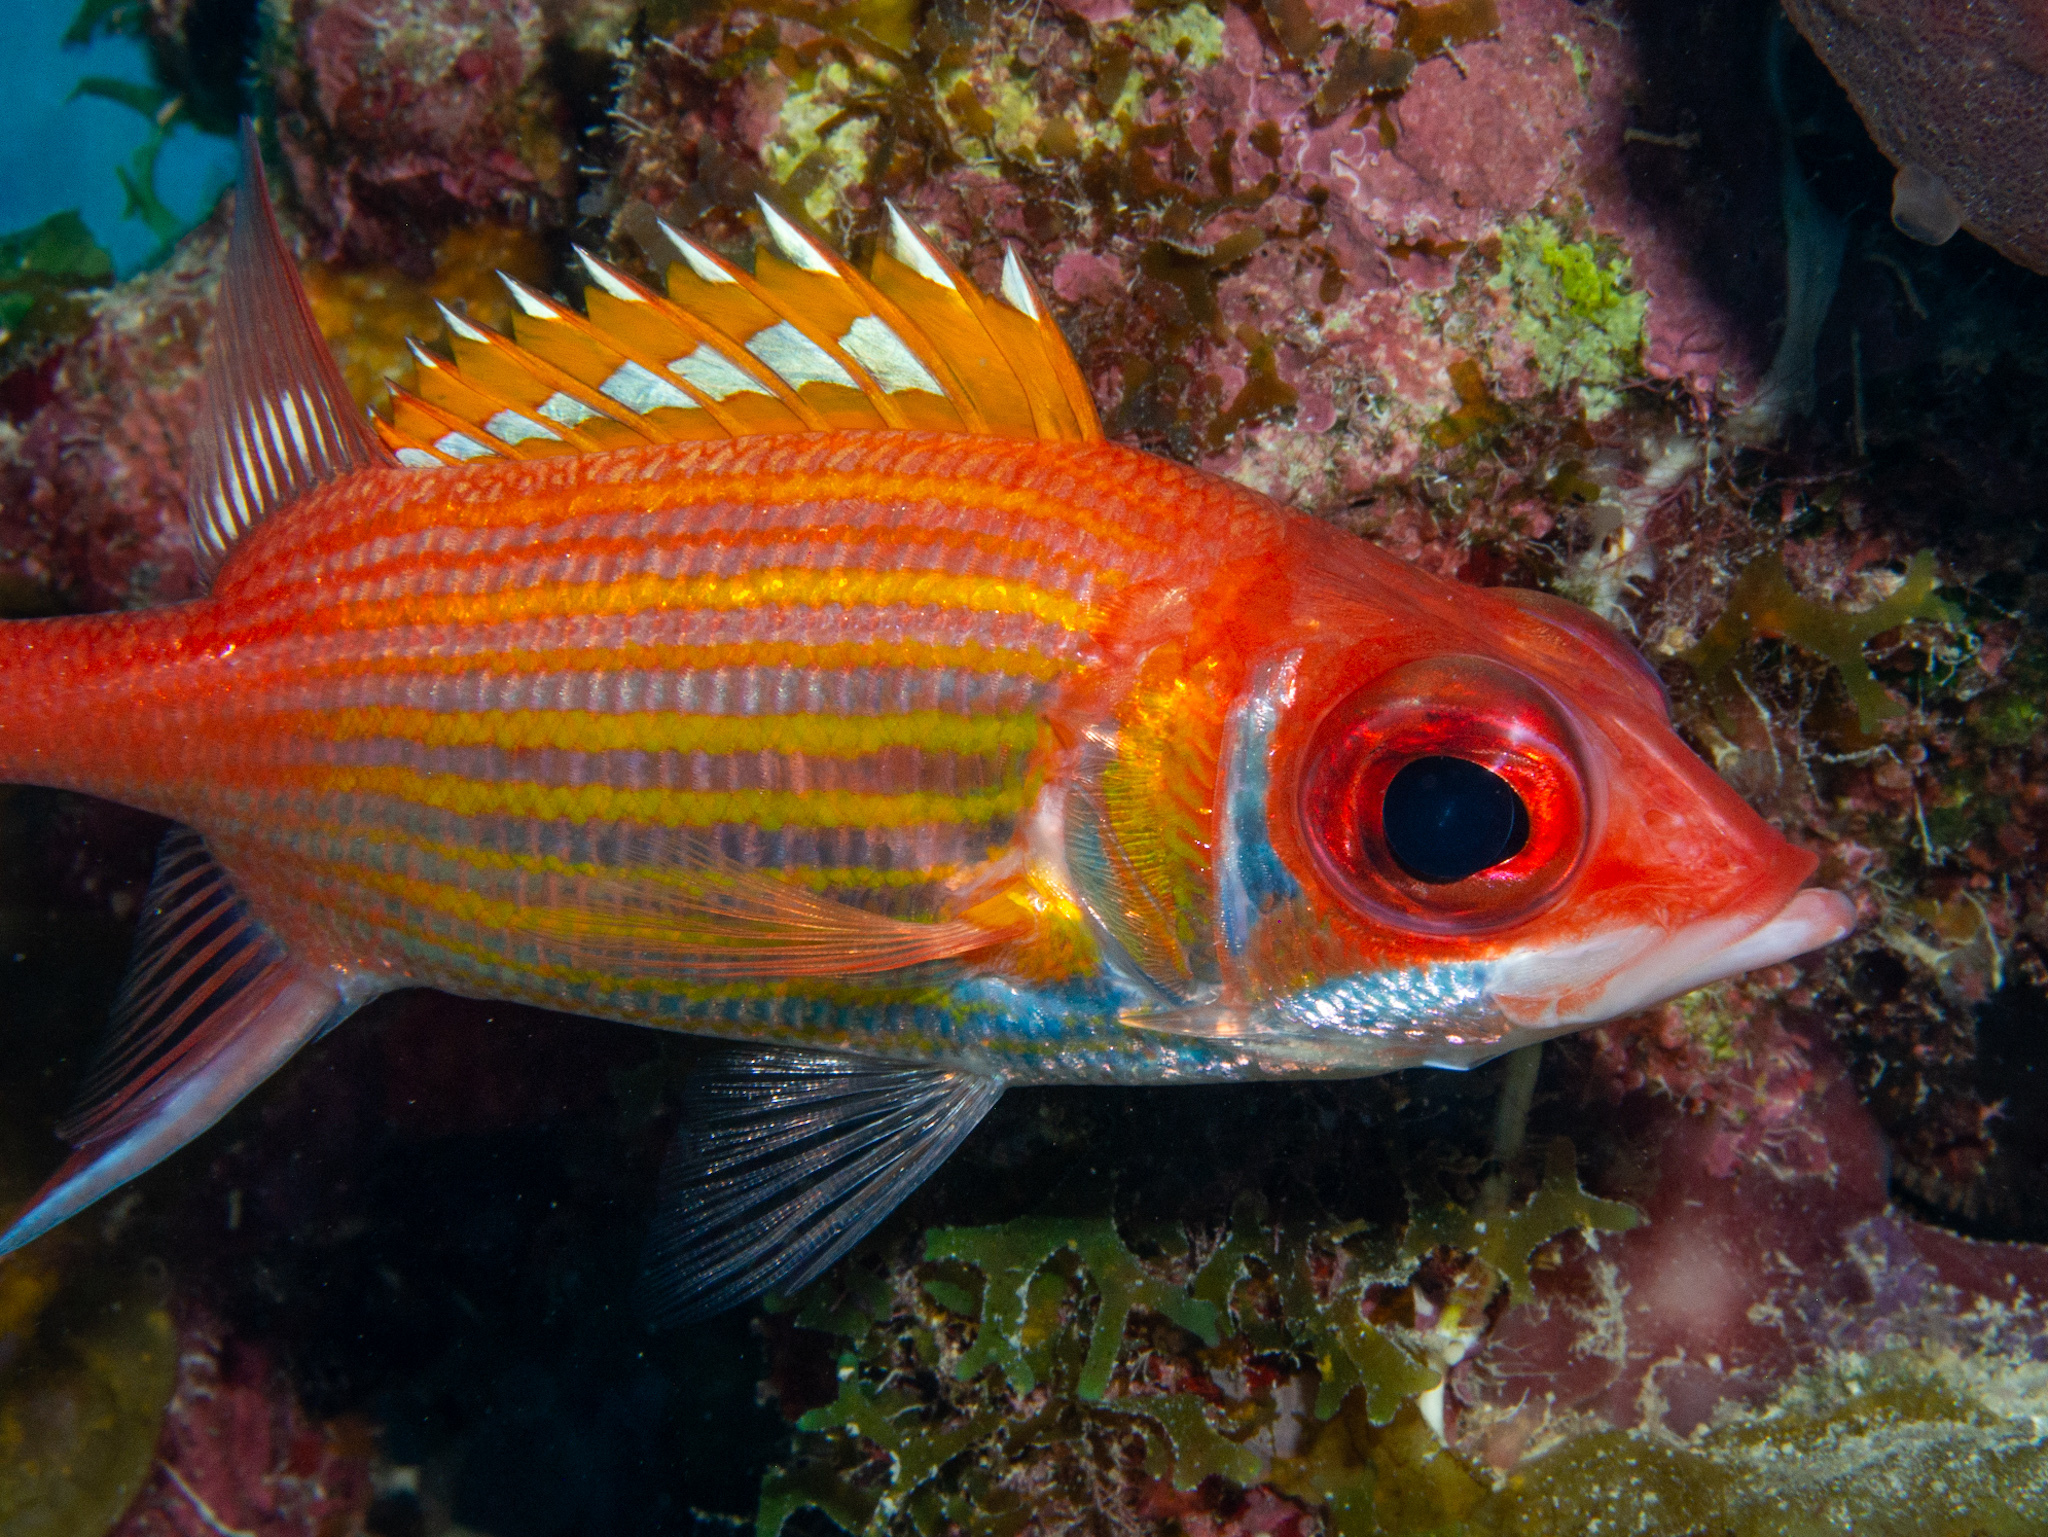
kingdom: Animalia
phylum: Chordata
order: Beryciformes
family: Holocentridae
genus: Neoniphon
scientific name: Neoniphon marianus
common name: Longjaw squirrelfish
